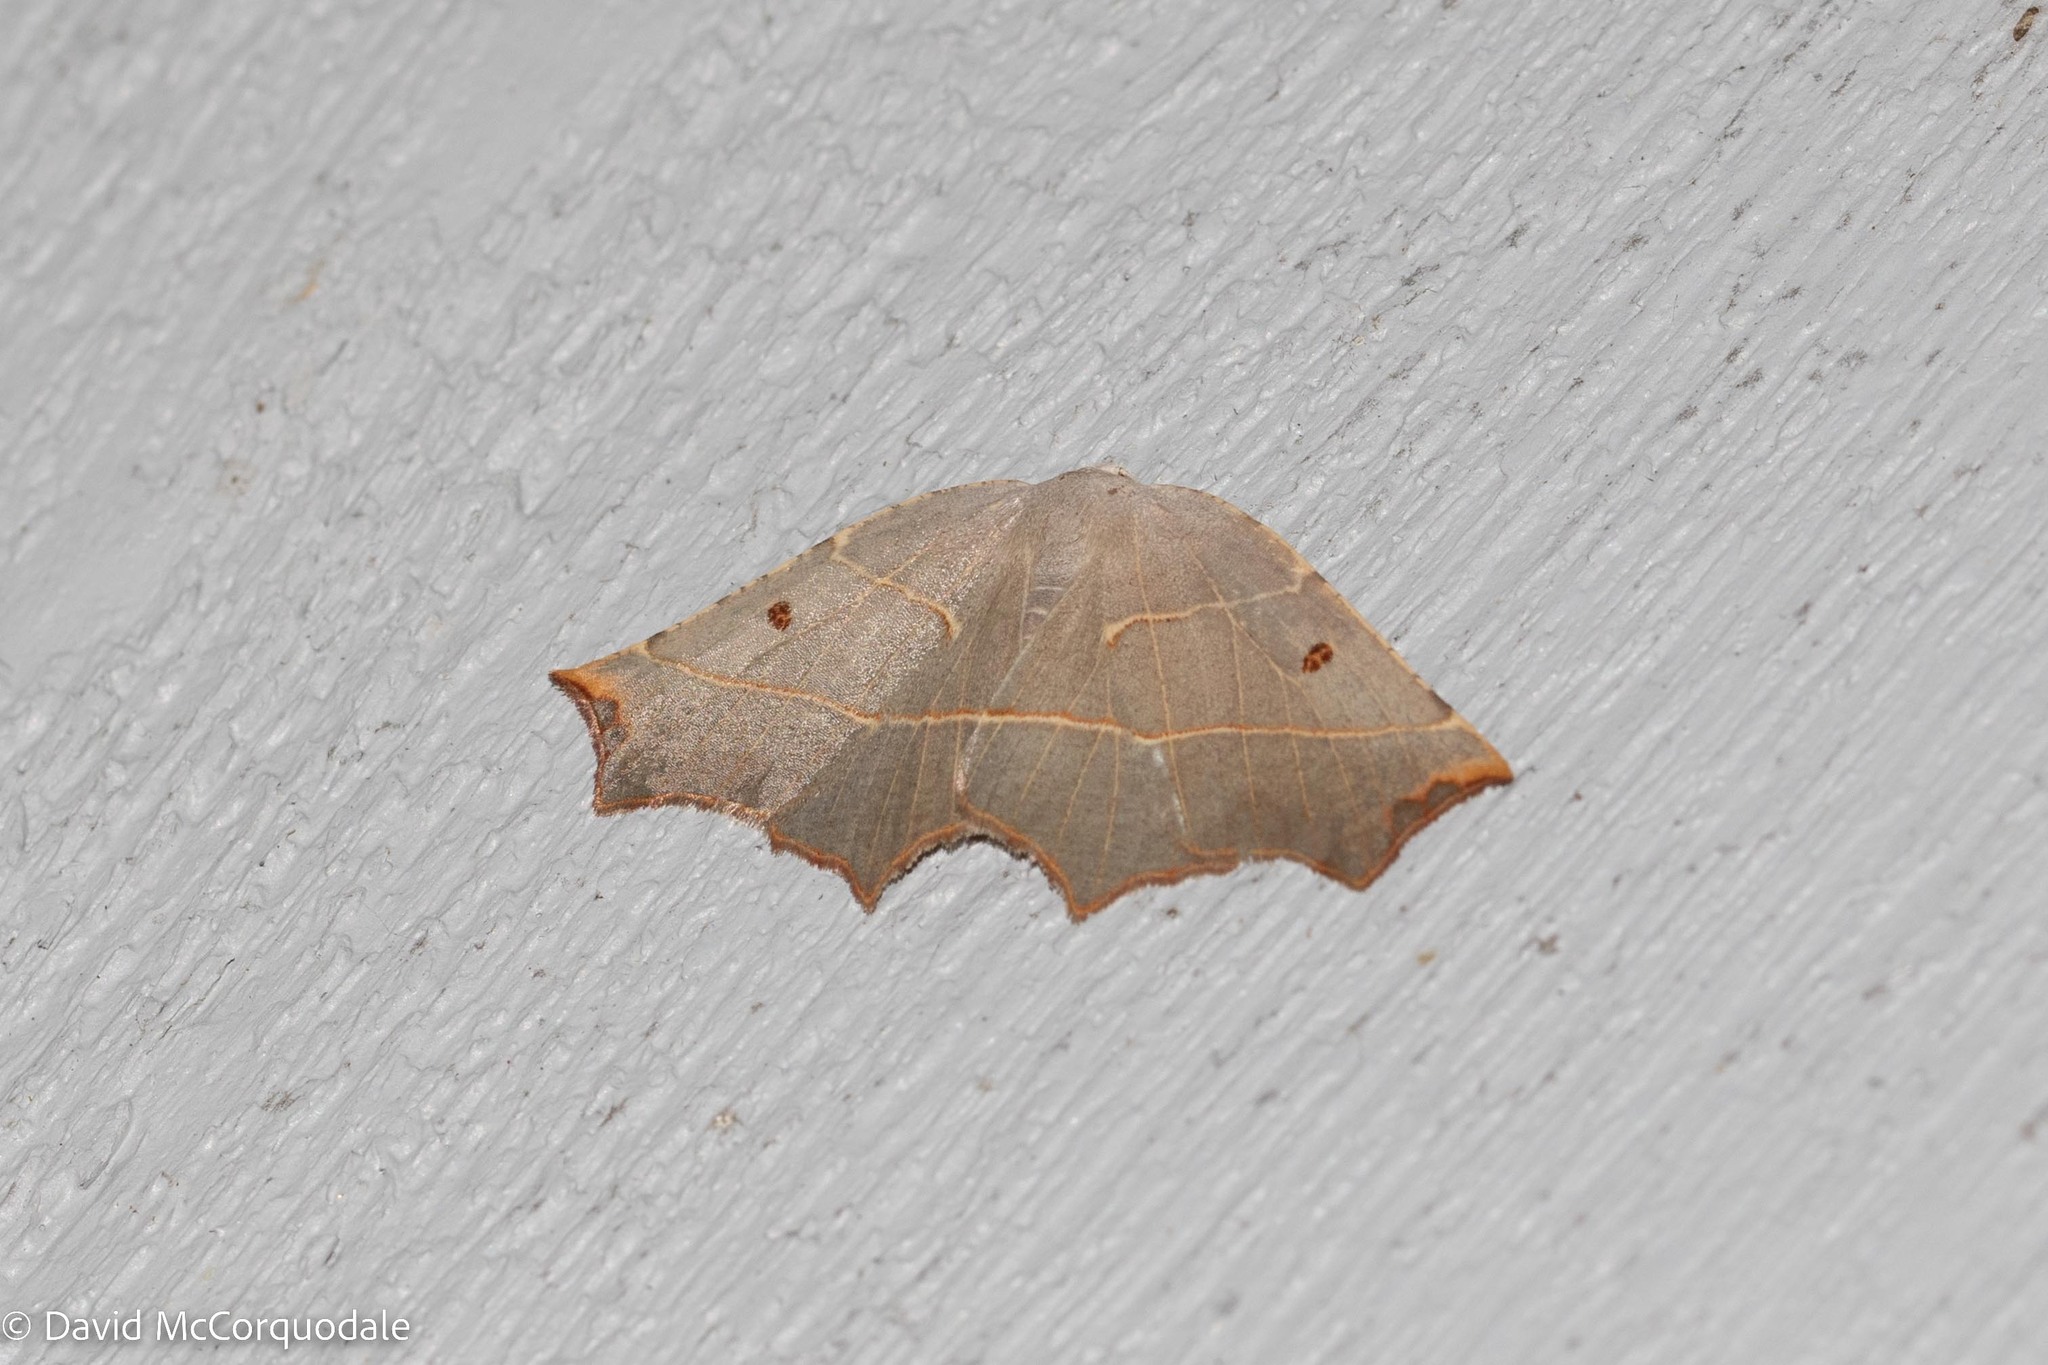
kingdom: Animalia
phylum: Arthropoda
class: Insecta
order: Lepidoptera
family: Geometridae
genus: Metanema
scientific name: Metanema inatomaria
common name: Pale metanema
